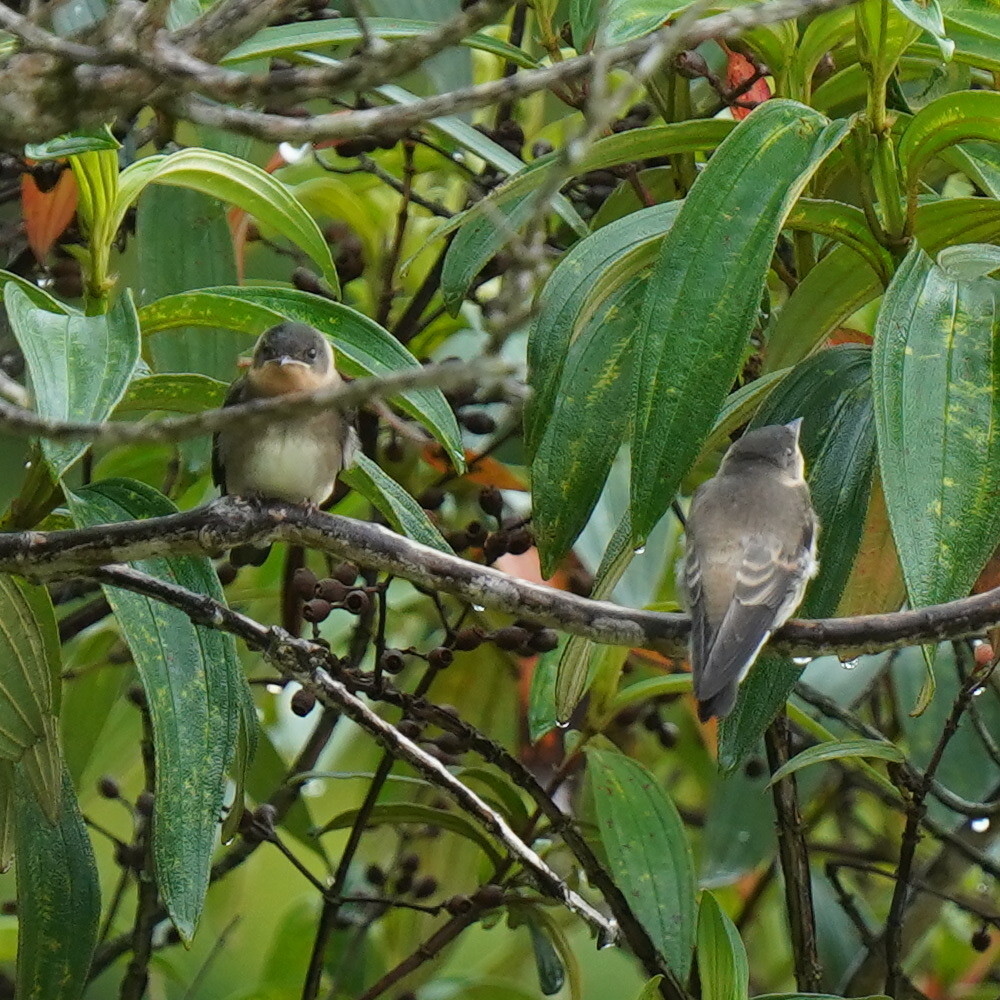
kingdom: Animalia
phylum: Chordata
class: Aves
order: Passeriformes
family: Hirundinidae
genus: Stelgidopteryx
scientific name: Stelgidopteryx ruficollis
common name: Southern rough-winged swallow
